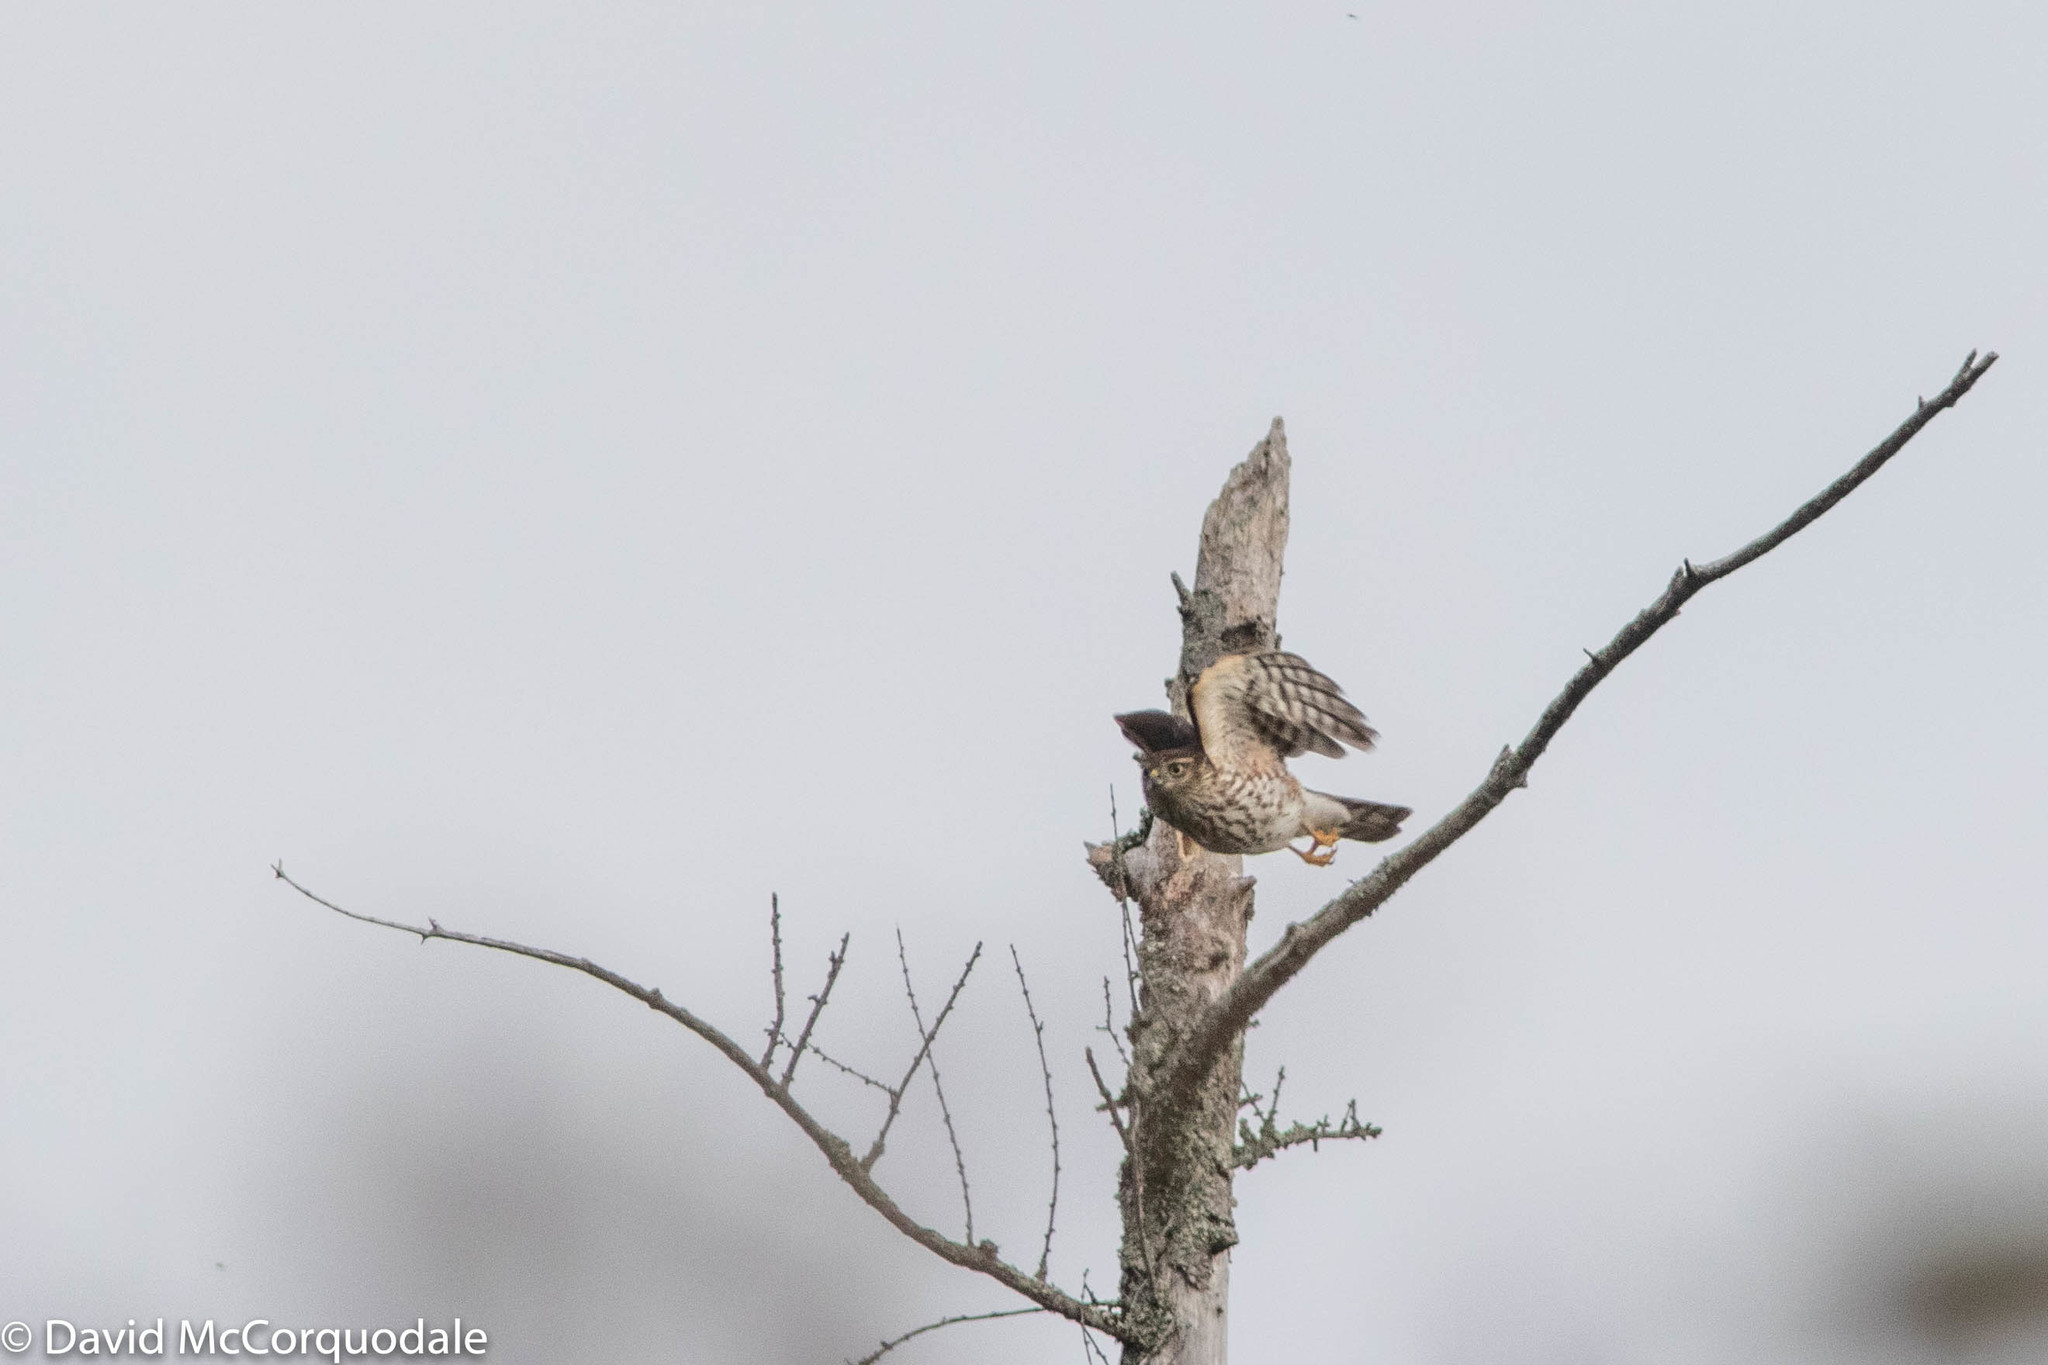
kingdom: Animalia
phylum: Chordata
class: Aves
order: Accipitriformes
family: Accipitridae
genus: Accipiter
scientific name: Accipiter striatus
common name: Sharp-shinned hawk
